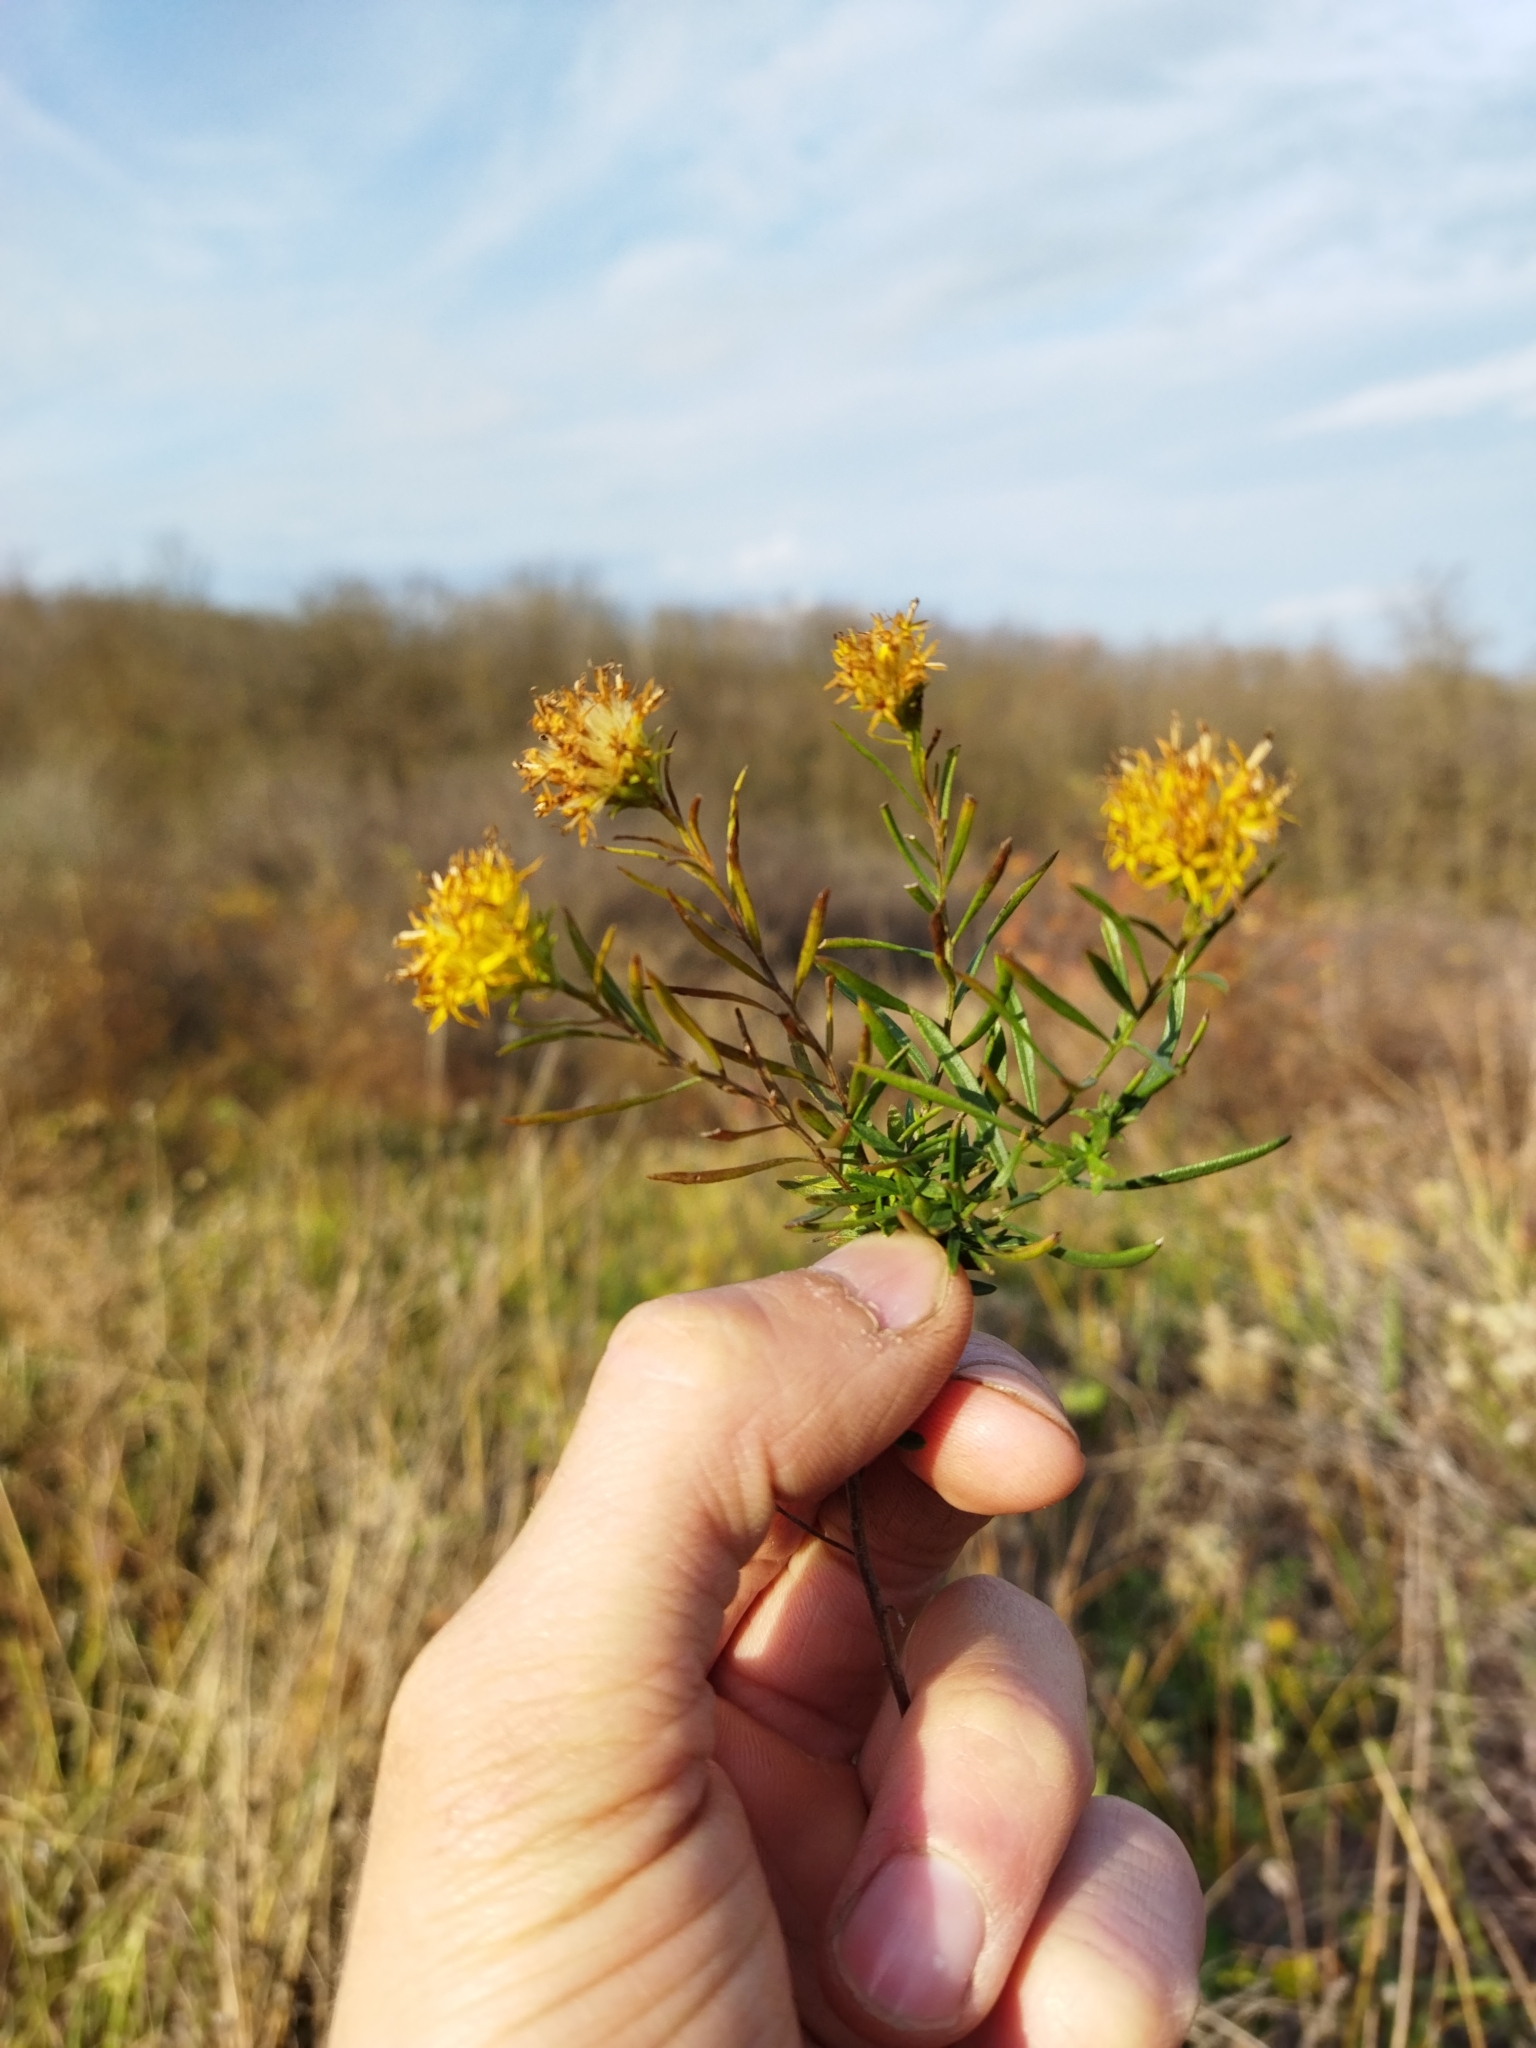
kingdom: Plantae
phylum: Tracheophyta
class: Magnoliopsida
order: Asterales
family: Asteraceae
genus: Galatella
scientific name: Galatella linosyris
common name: Goldilocks aster
